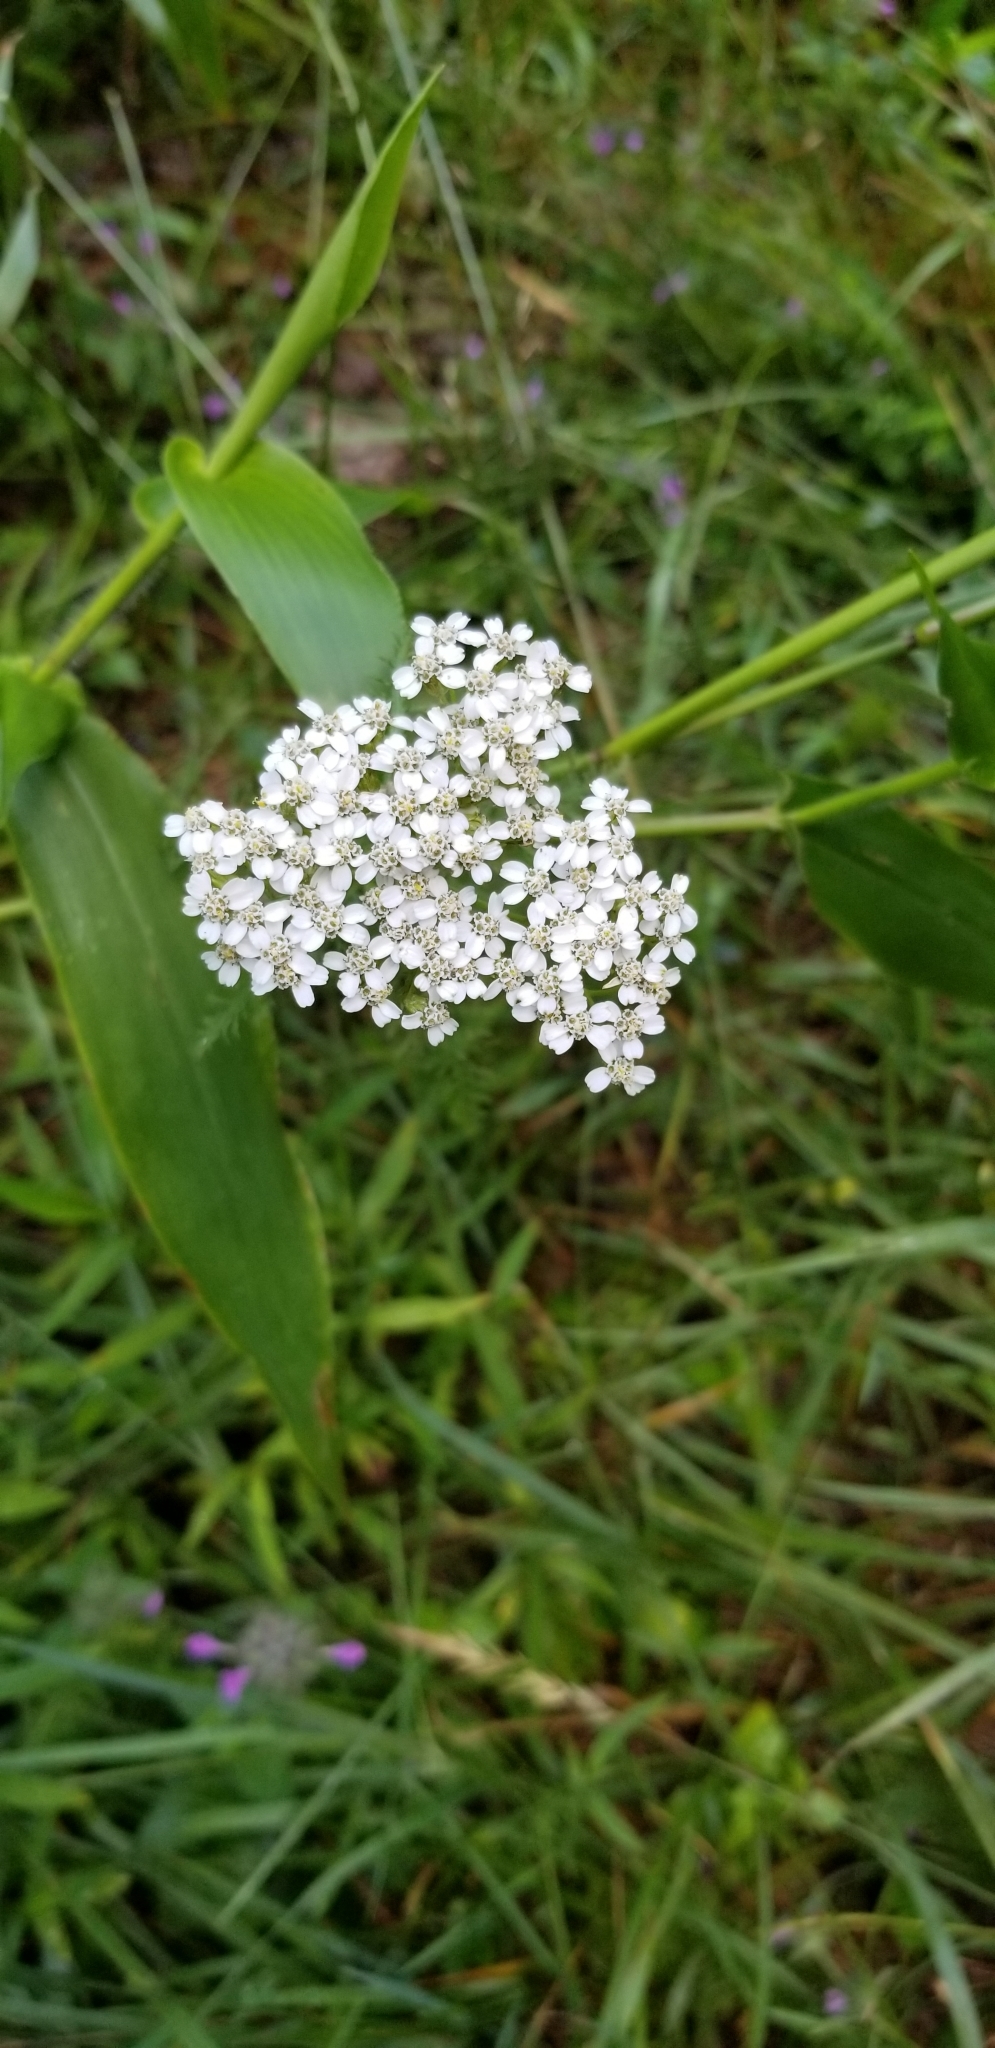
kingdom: Plantae
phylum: Tracheophyta
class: Magnoliopsida
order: Asterales
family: Asteraceae
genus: Achillea
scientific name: Achillea millefolium
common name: Yarrow
